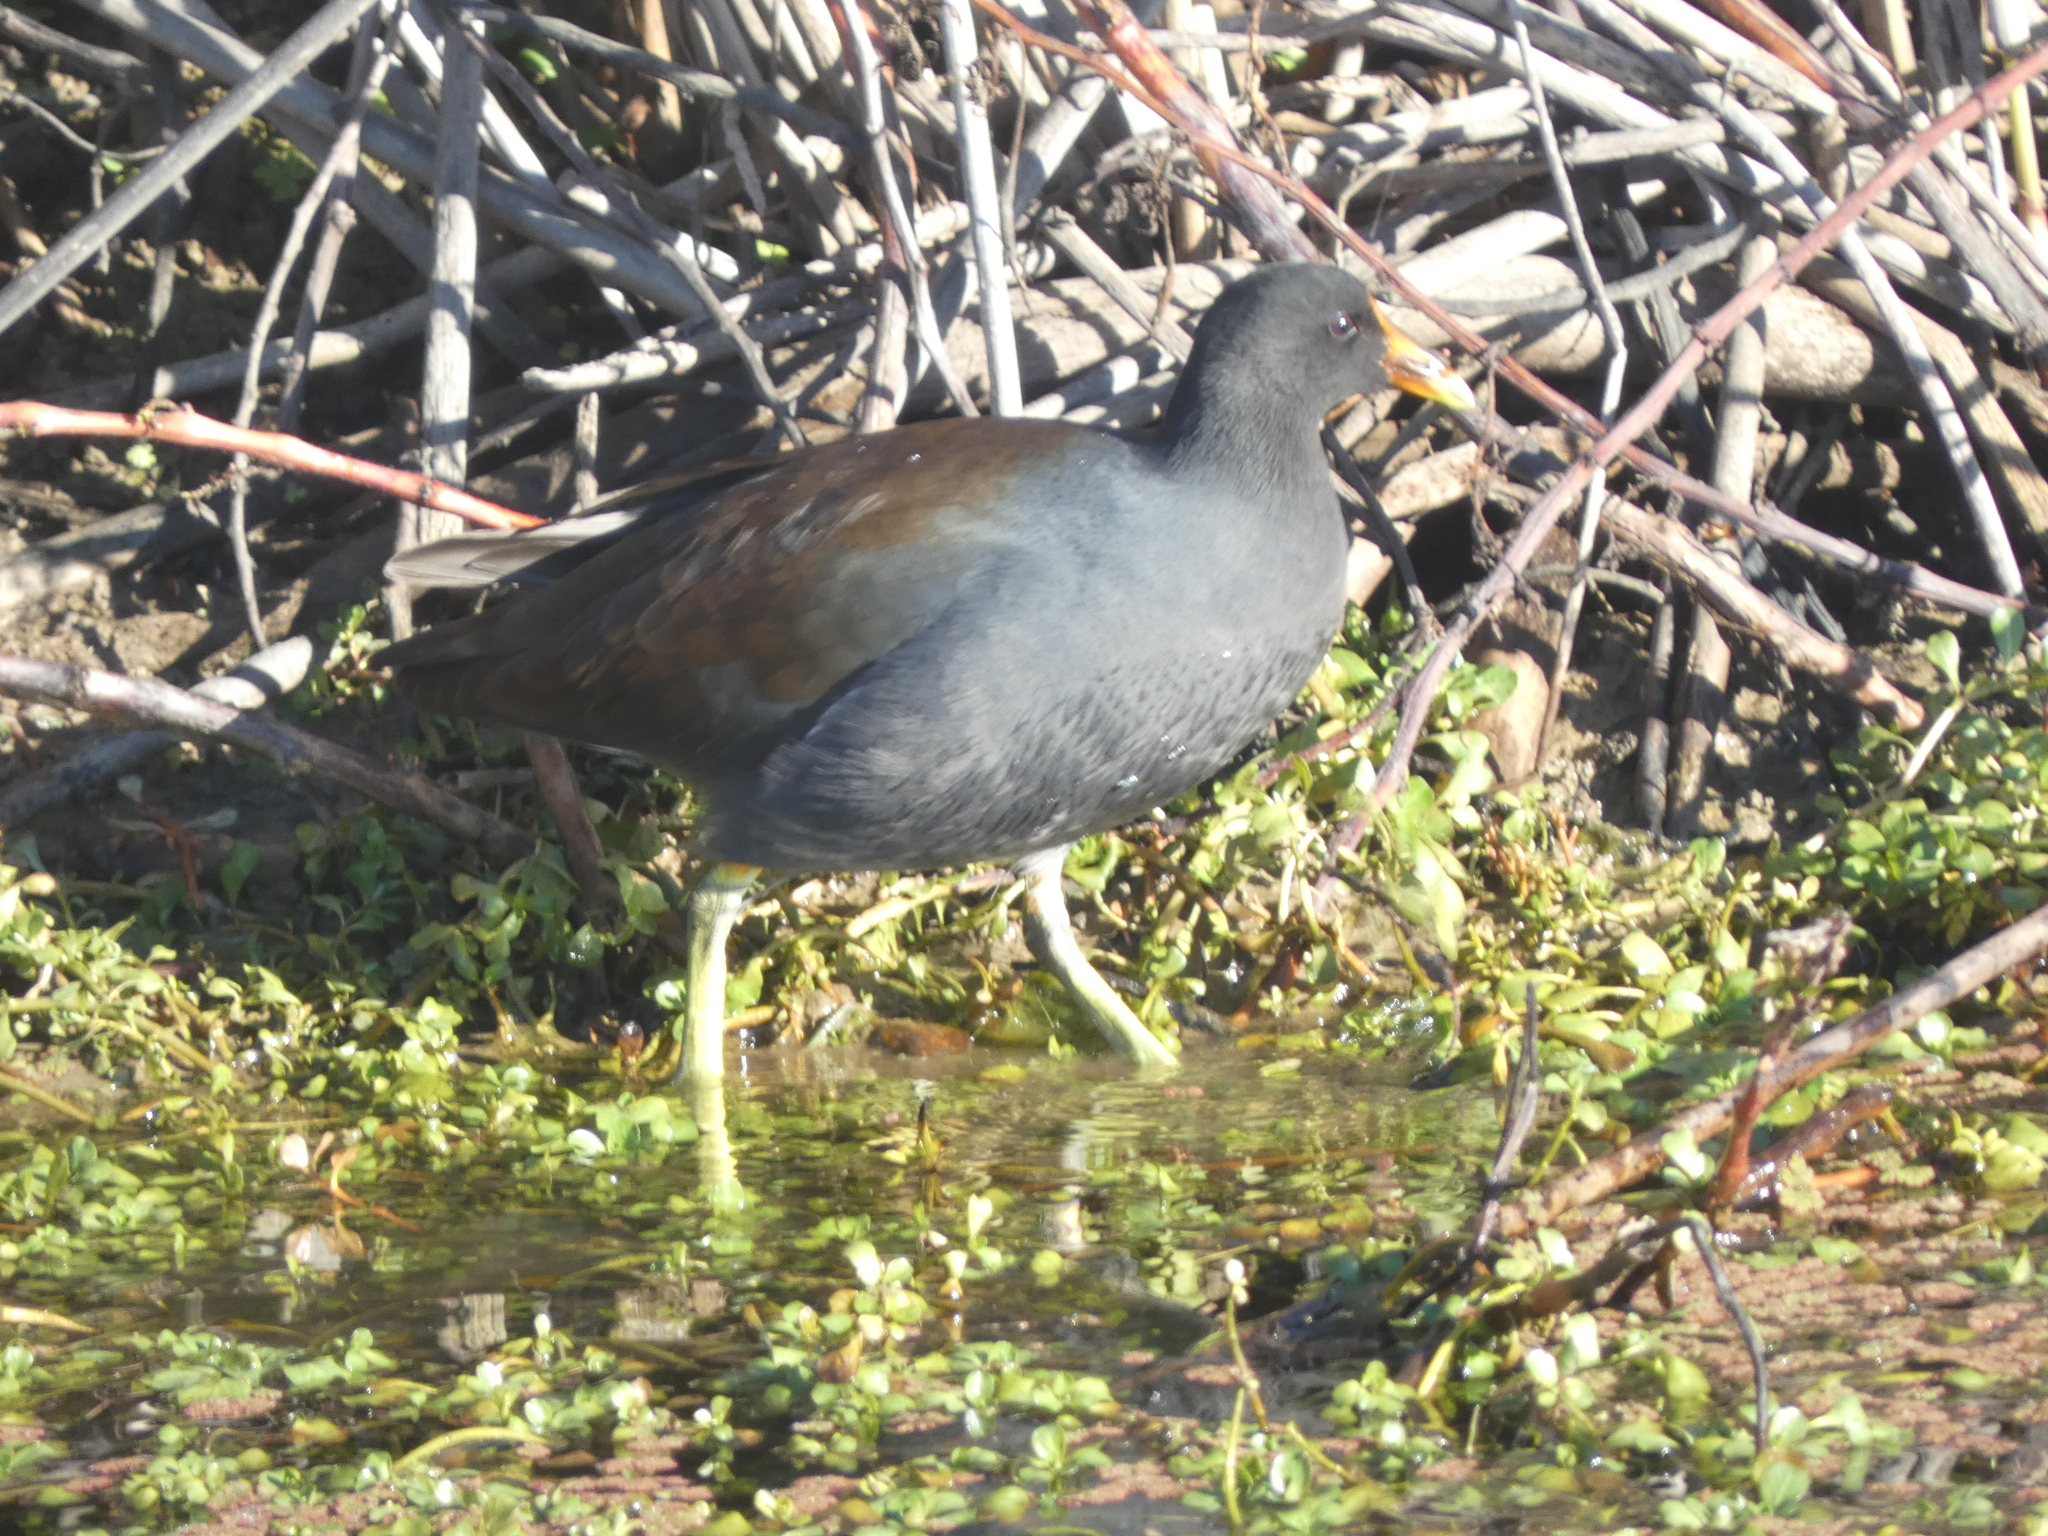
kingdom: Animalia
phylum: Chordata
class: Aves
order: Gruiformes
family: Rallidae
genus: Gallinula
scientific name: Gallinula chloropus
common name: Common moorhen
